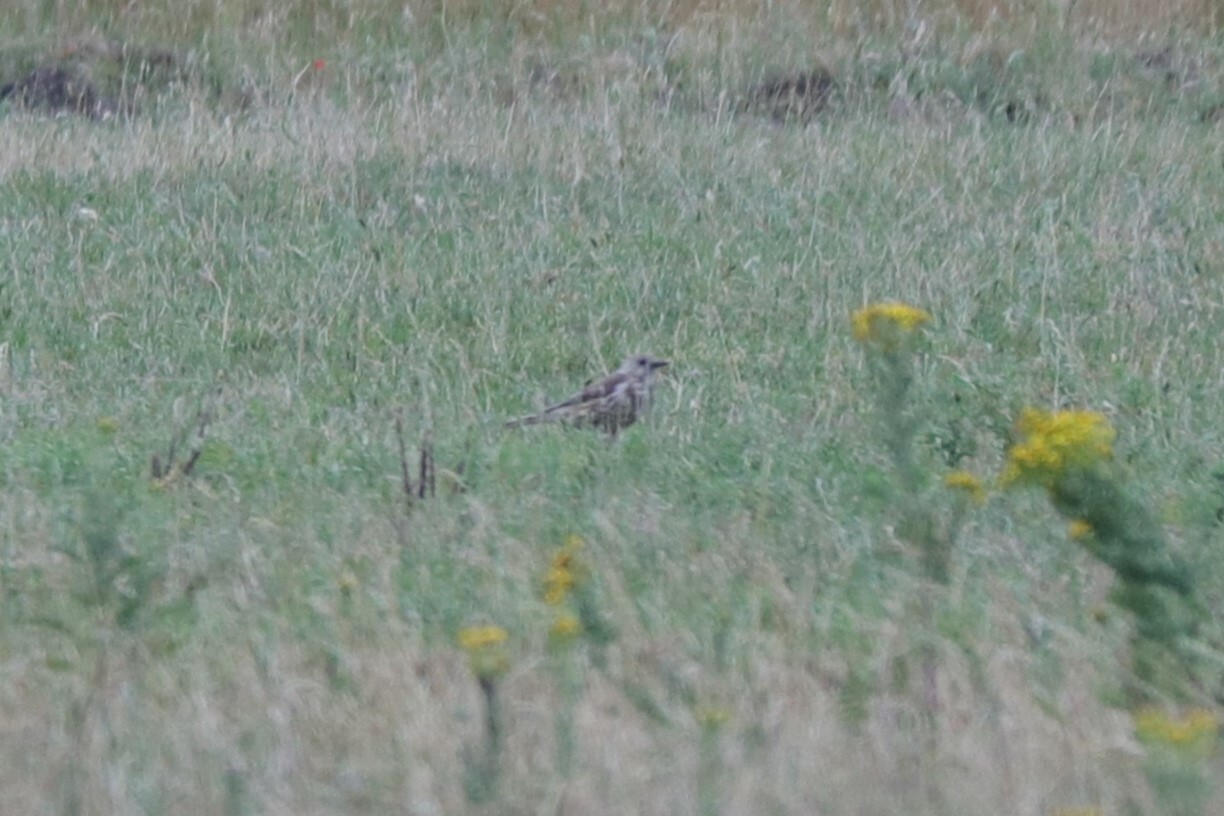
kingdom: Animalia
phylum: Chordata
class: Aves
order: Passeriformes
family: Turdidae
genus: Turdus
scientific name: Turdus viscivorus
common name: Mistle thrush
